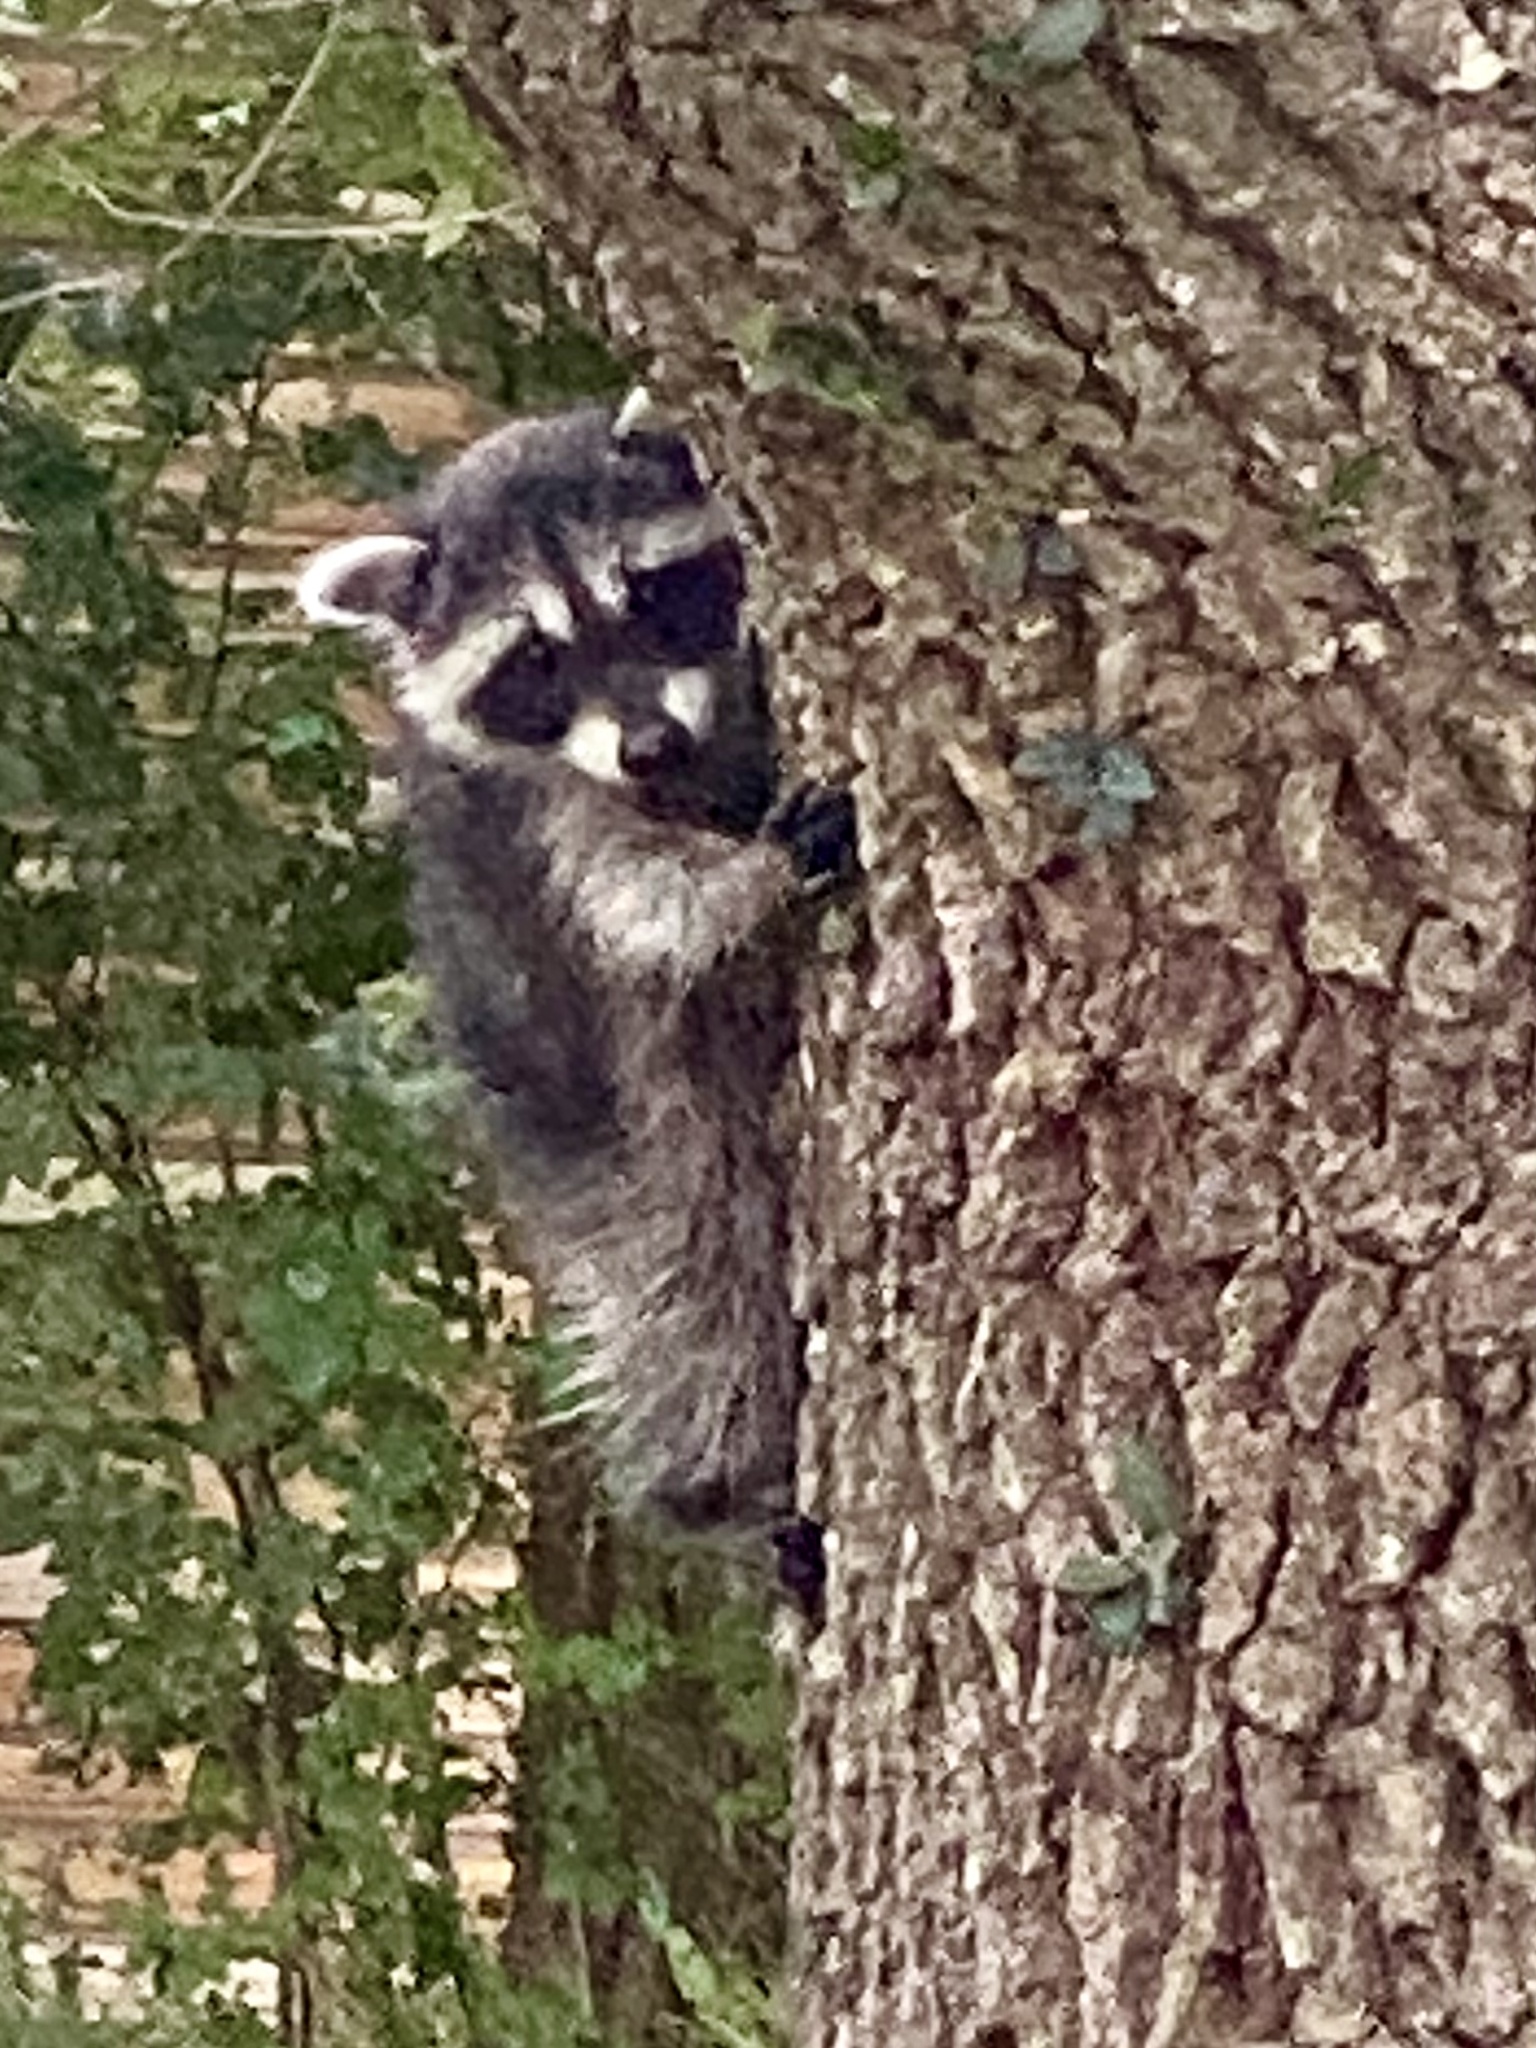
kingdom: Animalia
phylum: Chordata
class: Mammalia
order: Carnivora
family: Procyonidae
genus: Procyon
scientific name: Procyon lotor
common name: Raccoon
